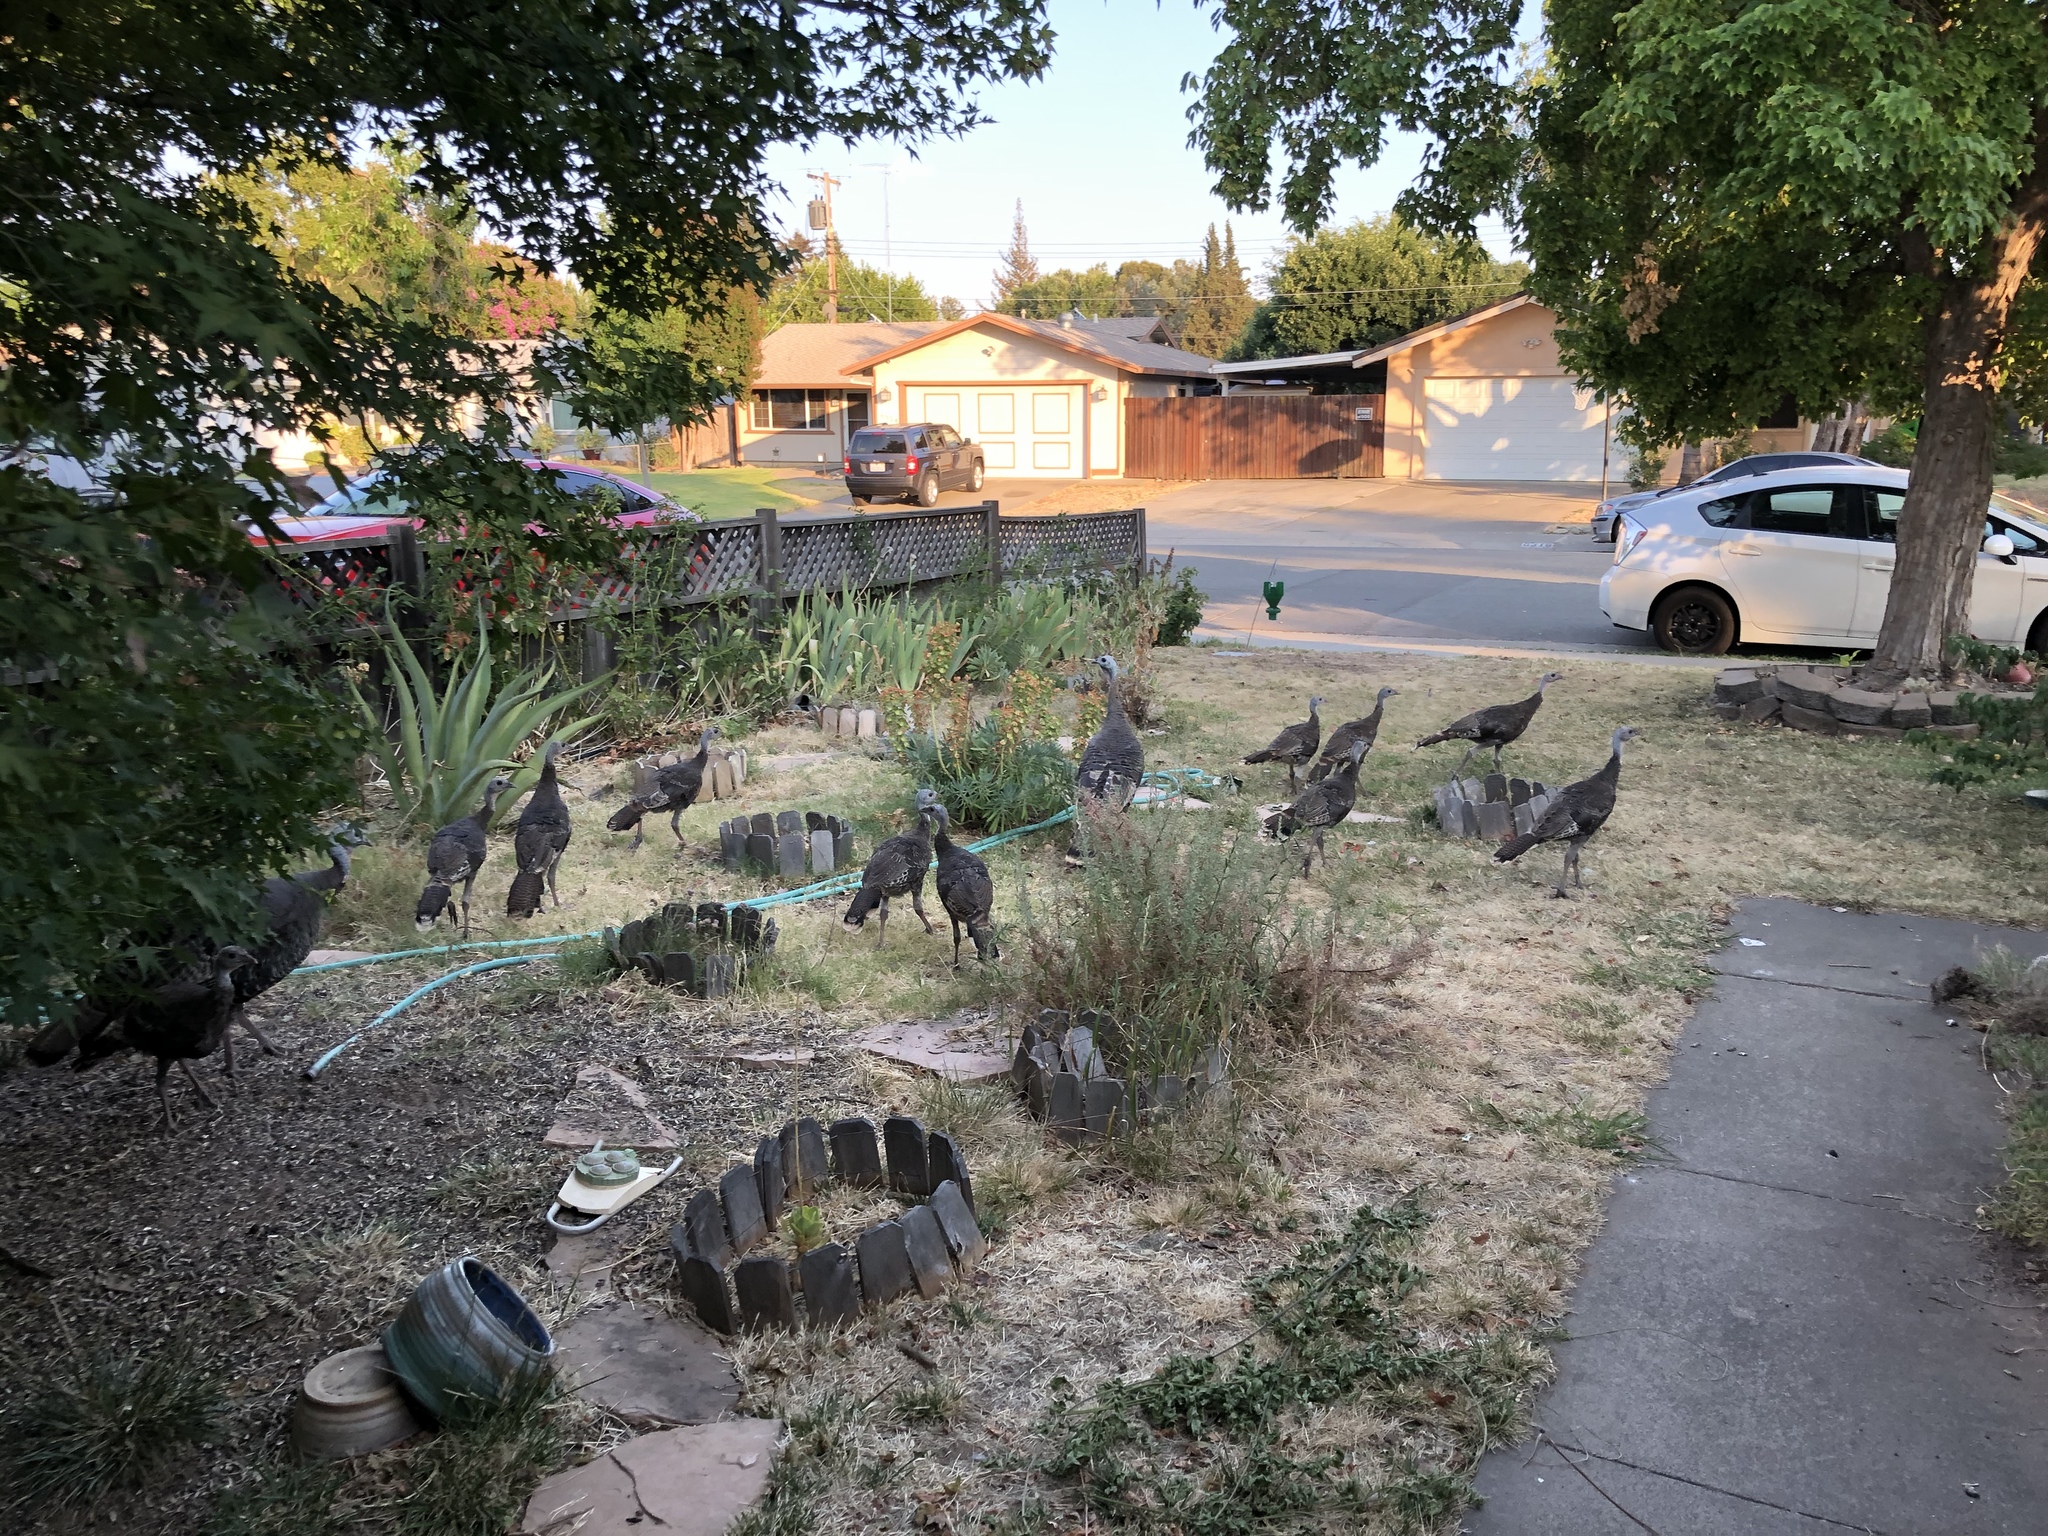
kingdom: Animalia
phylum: Chordata
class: Aves
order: Galliformes
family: Phasianidae
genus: Meleagris
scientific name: Meleagris gallopavo
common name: Wild turkey
